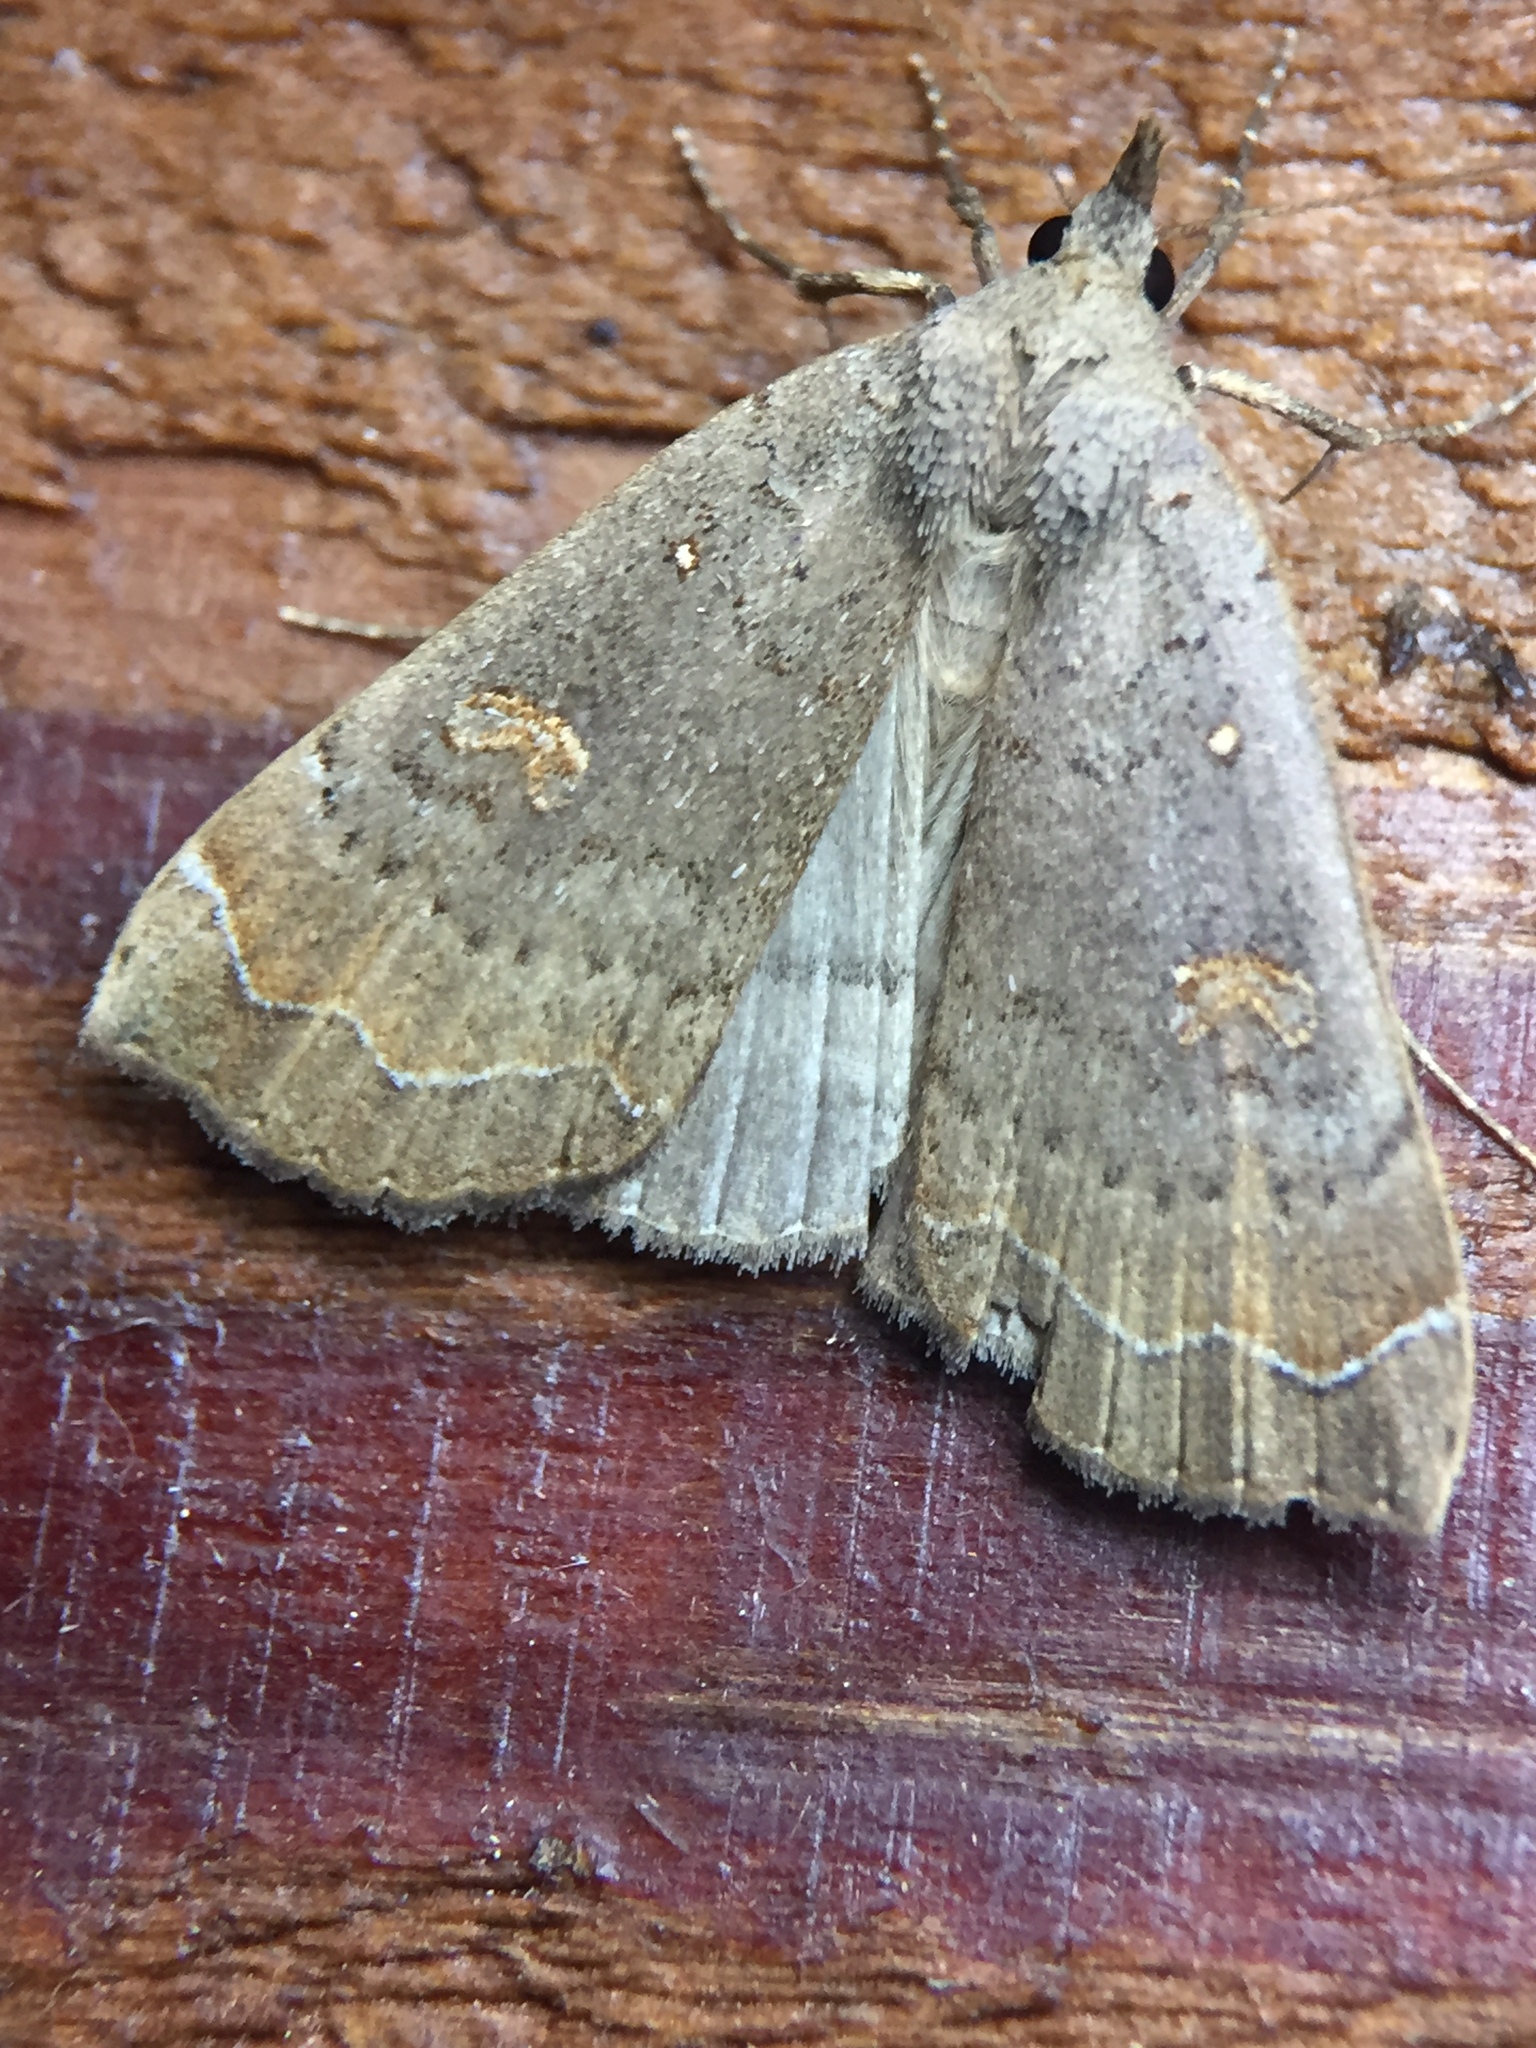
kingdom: Animalia
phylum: Arthropoda
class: Insecta
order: Lepidoptera
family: Erebidae
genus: Rhapsa
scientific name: Rhapsa scotosialis
